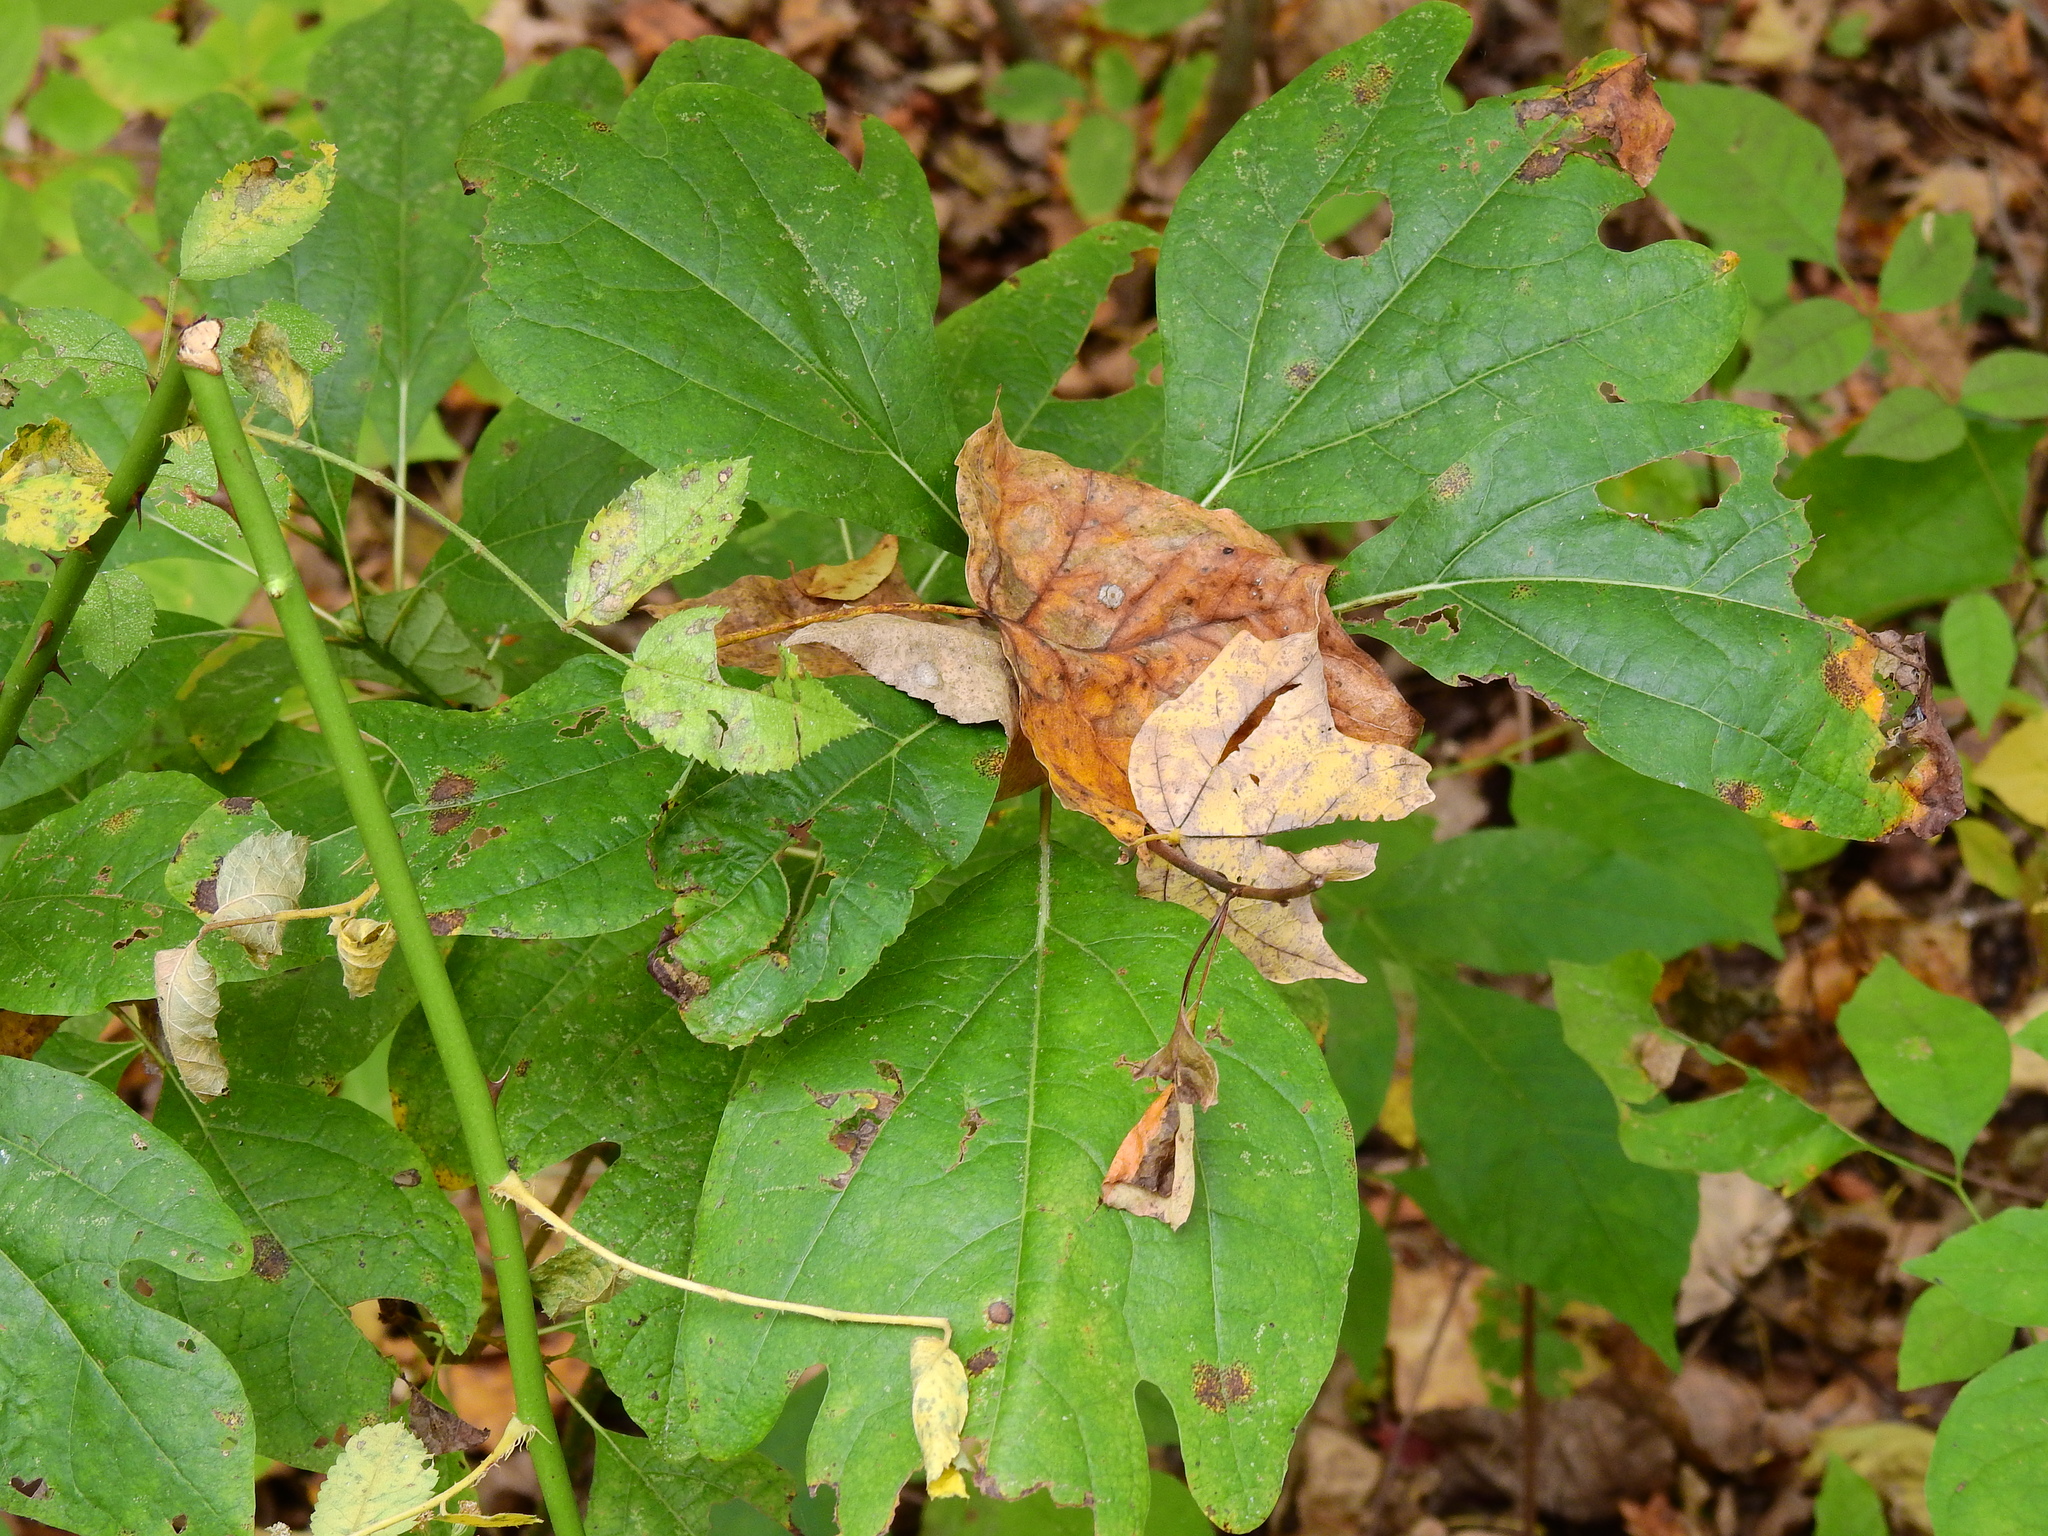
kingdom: Plantae
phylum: Tracheophyta
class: Magnoliopsida
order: Laurales
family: Lauraceae
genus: Sassafras
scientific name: Sassafras albidum
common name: Sassafras
